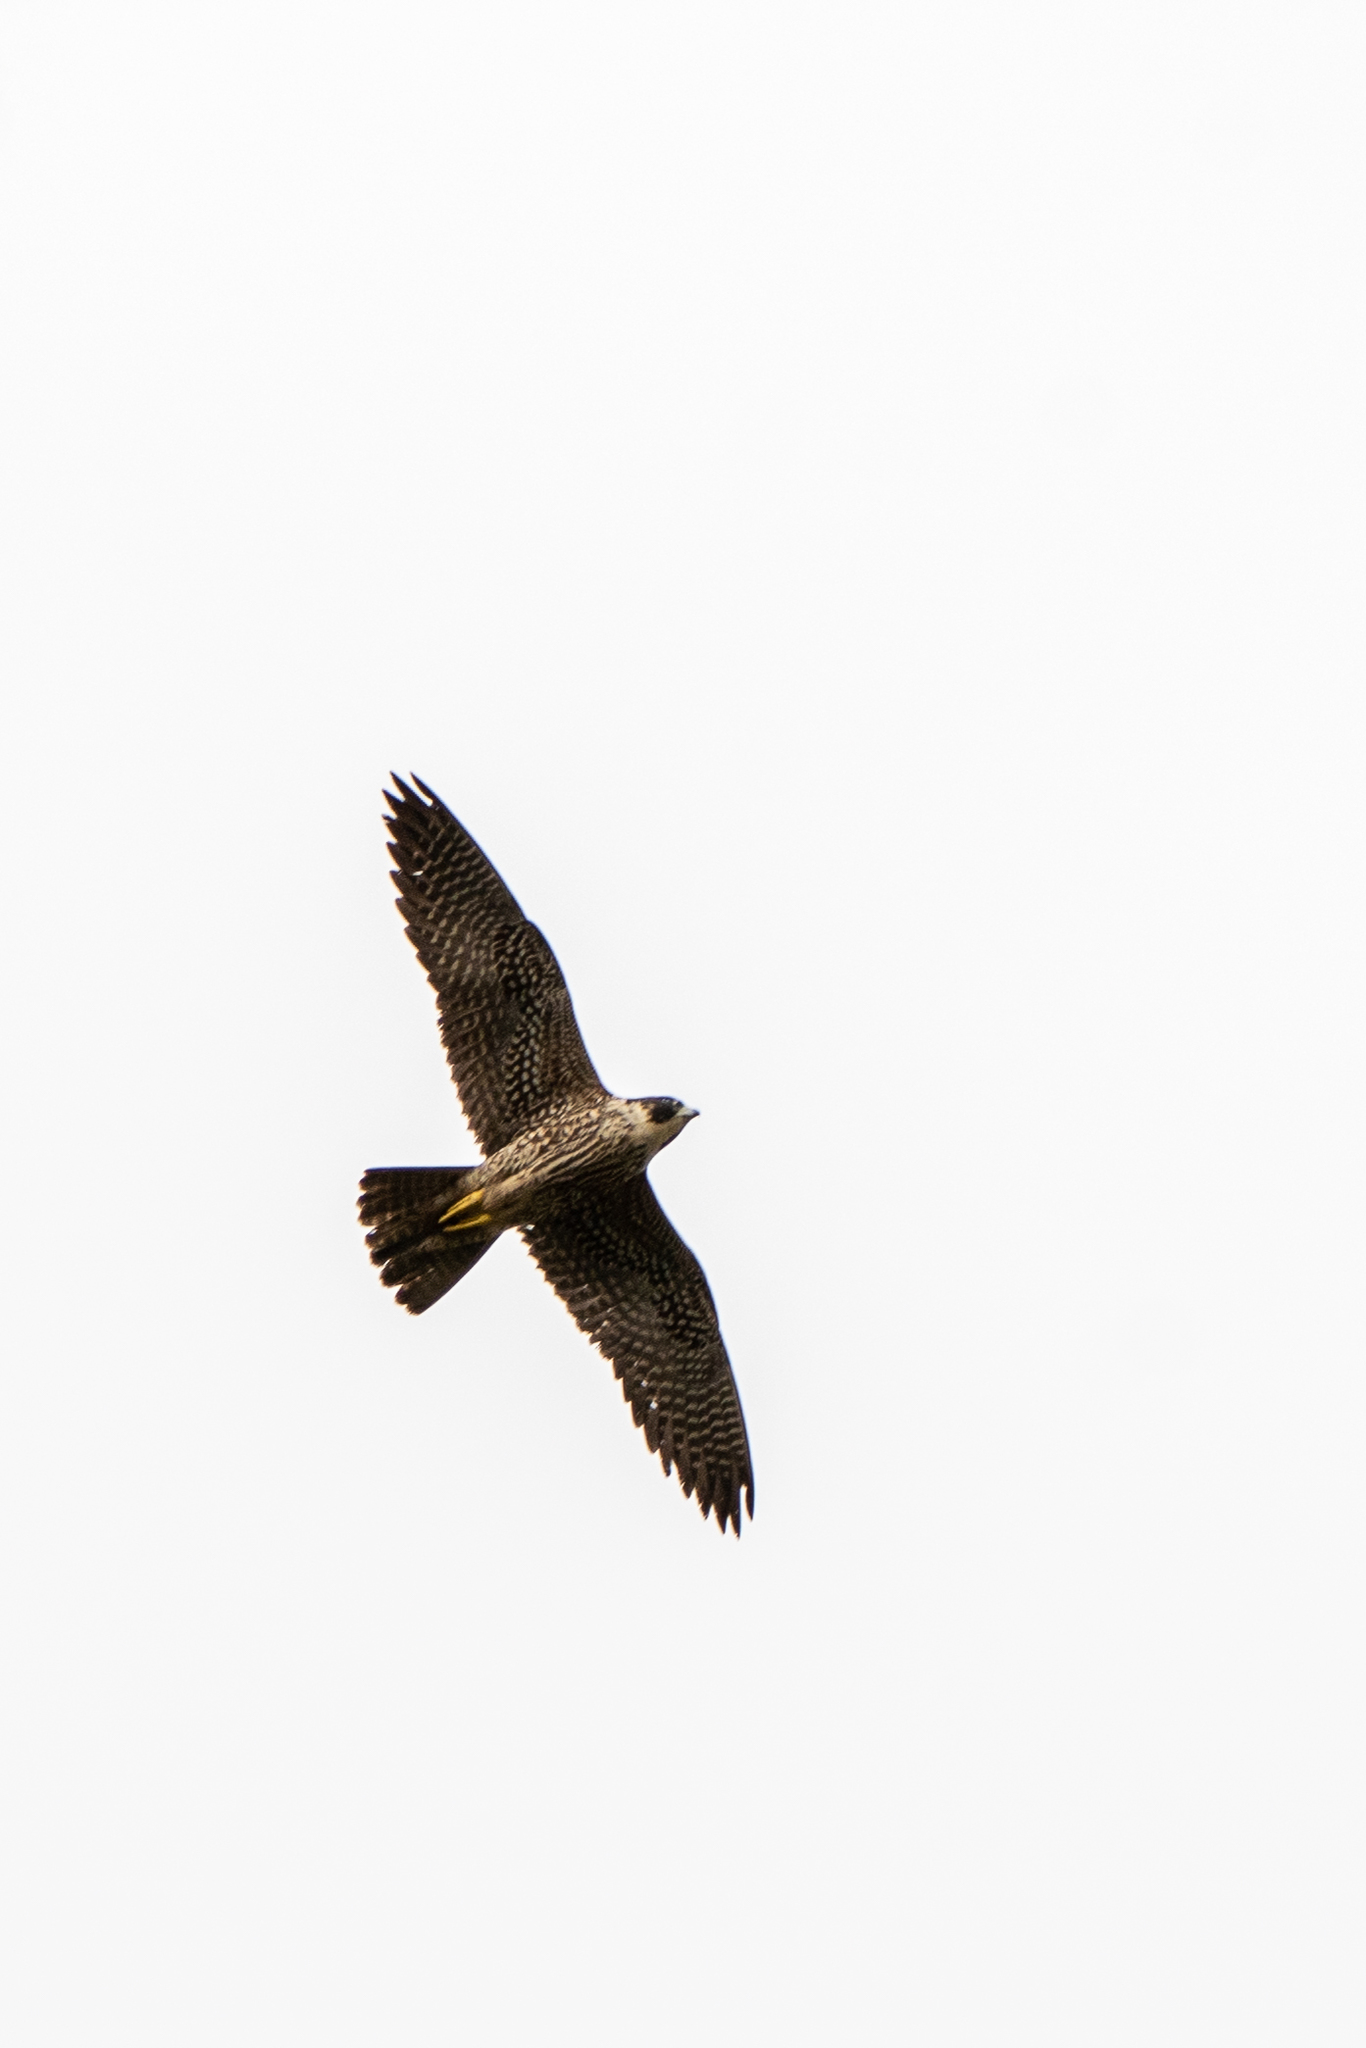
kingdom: Animalia
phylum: Chordata
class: Aves
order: Falconiformes
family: Falconidae
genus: Falco
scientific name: Falco peregrinus
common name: Peregrine falcon
